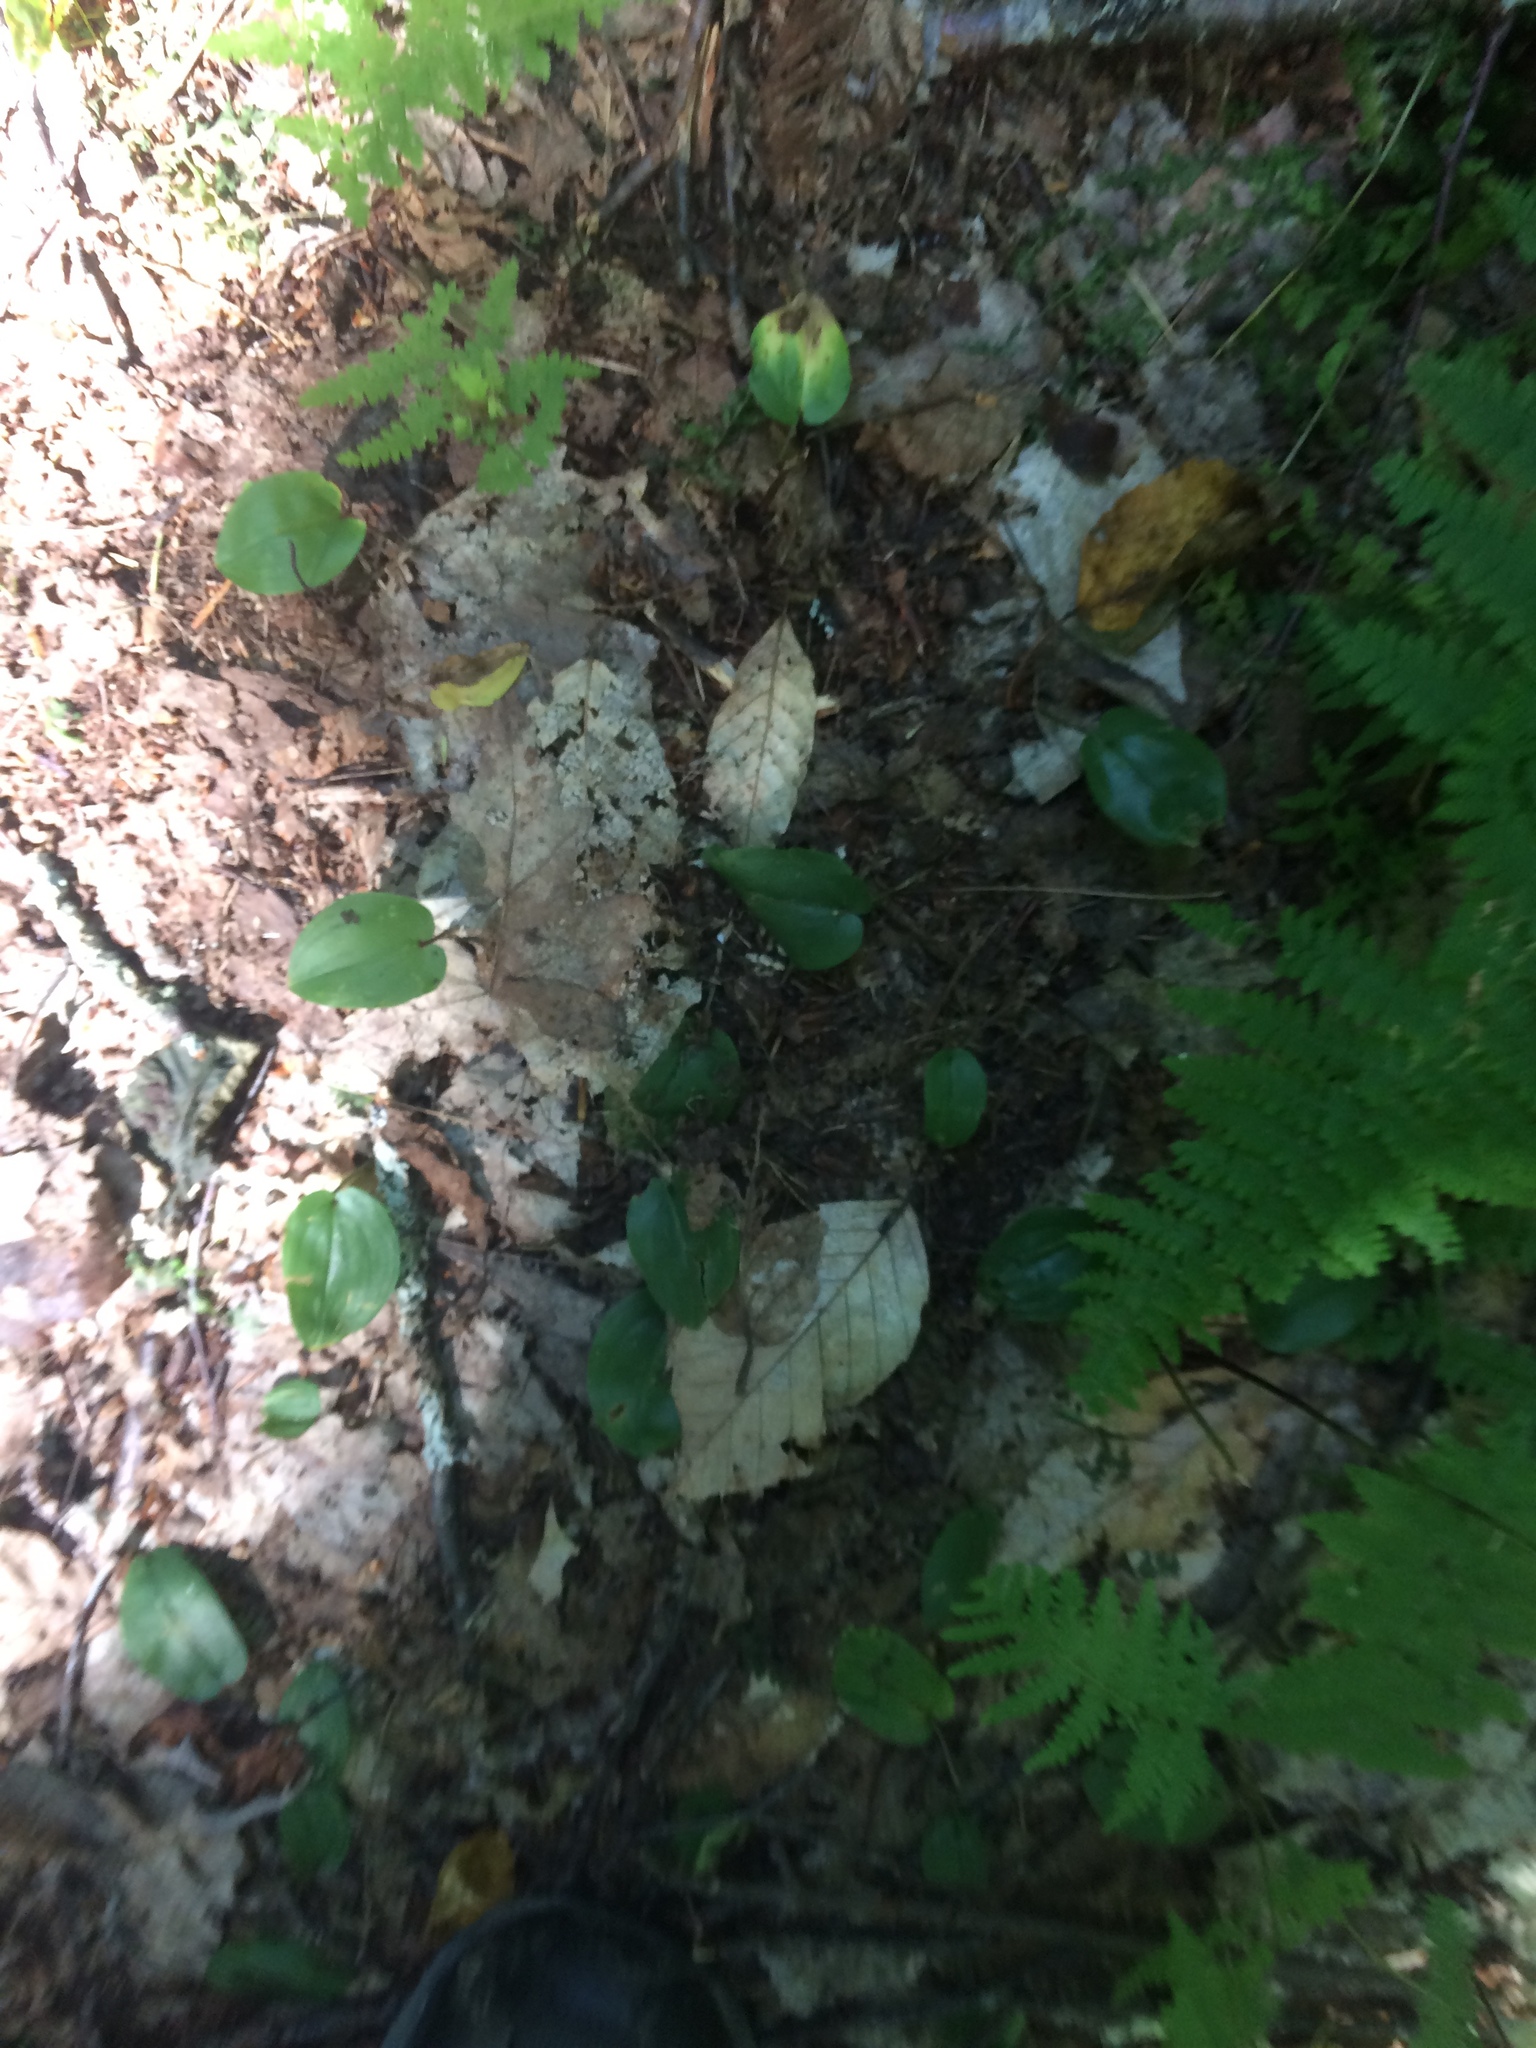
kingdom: Plantae
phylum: Tracheophyta
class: Liliopsida
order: Asparagales
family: Asparagaceae
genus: Maianthemum
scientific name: Maianthemum canadense
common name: False lily-of-the-valley
